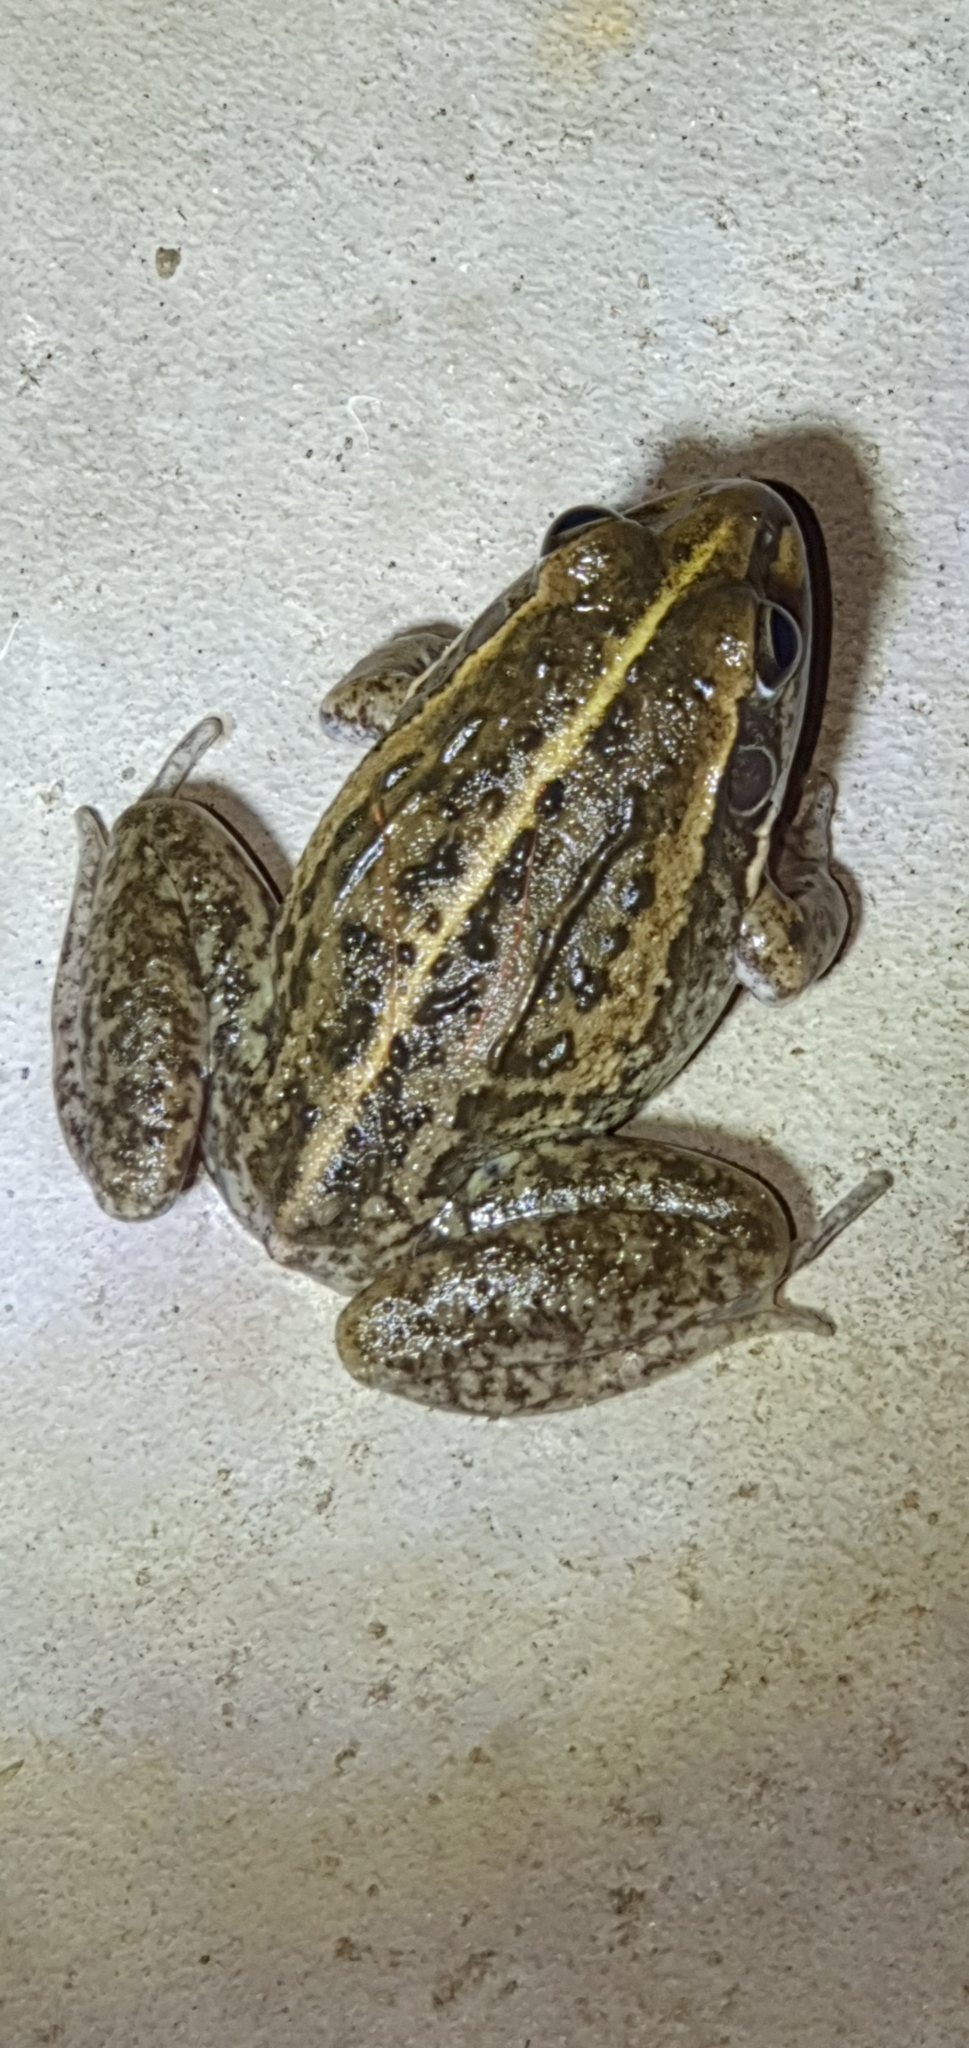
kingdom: Animalia
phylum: Chordata
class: Amphibia
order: Anura
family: Pelodryadidae
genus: Ranoidea
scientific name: Ranoidea alboguttata
